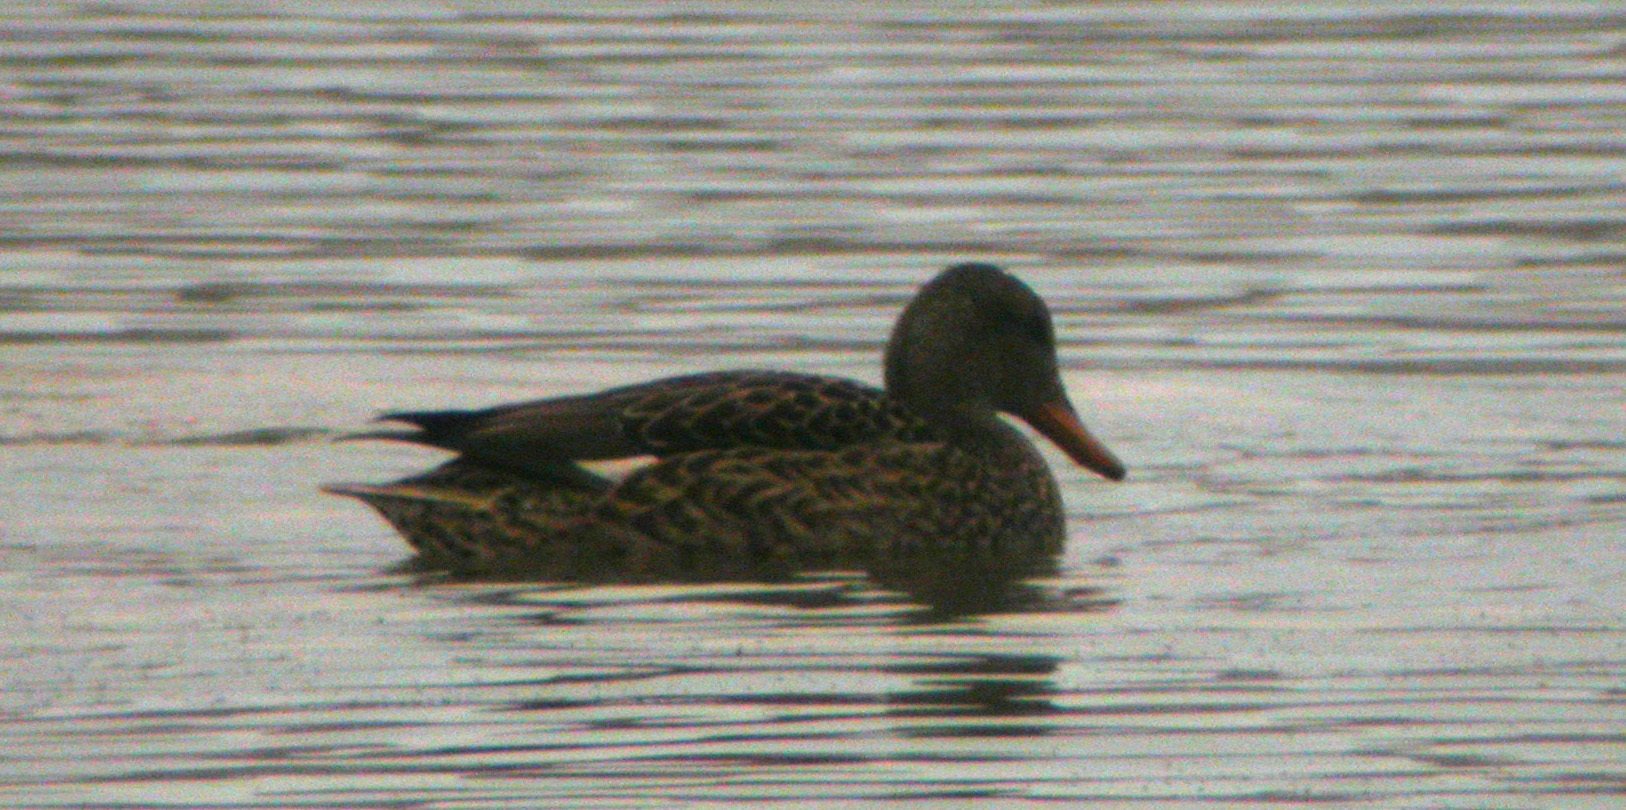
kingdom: Animalia
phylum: Chordata
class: Aves
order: Anseriformes
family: Anatidae
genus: Mareca
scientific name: Mareca strepera
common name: Gadwall
